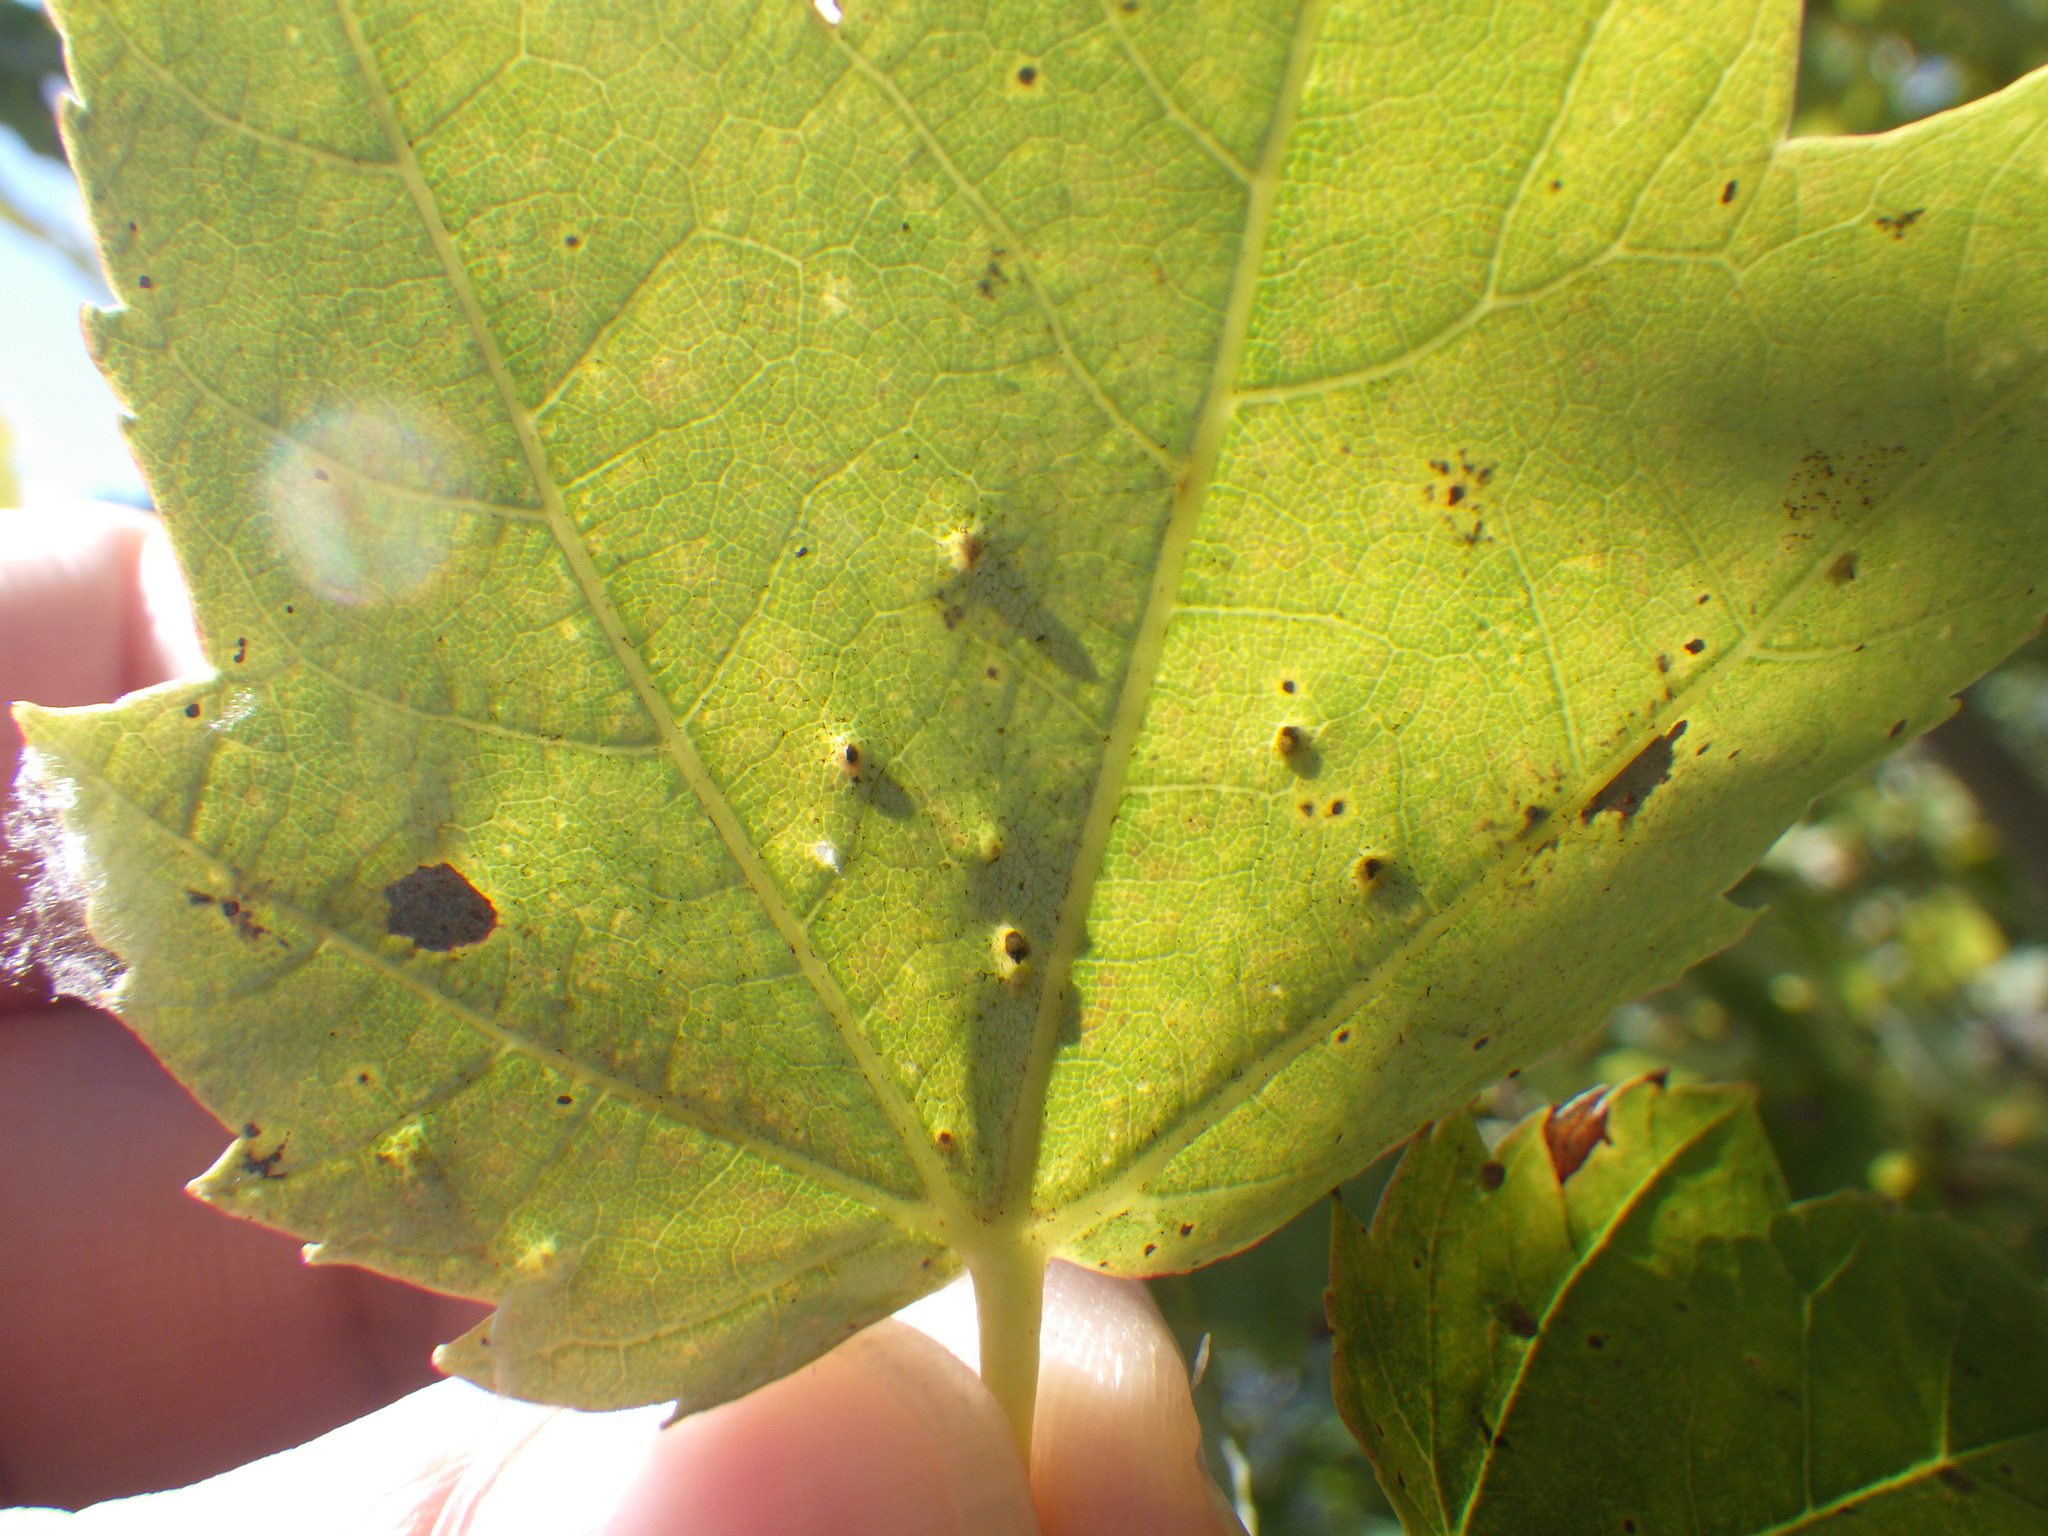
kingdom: Animalia
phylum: Arthropoda
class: Arachnida
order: Trombidiformes
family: Eriophyidae
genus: Vasates
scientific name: Vasates quadripedes
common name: Maple bladder gall mite
